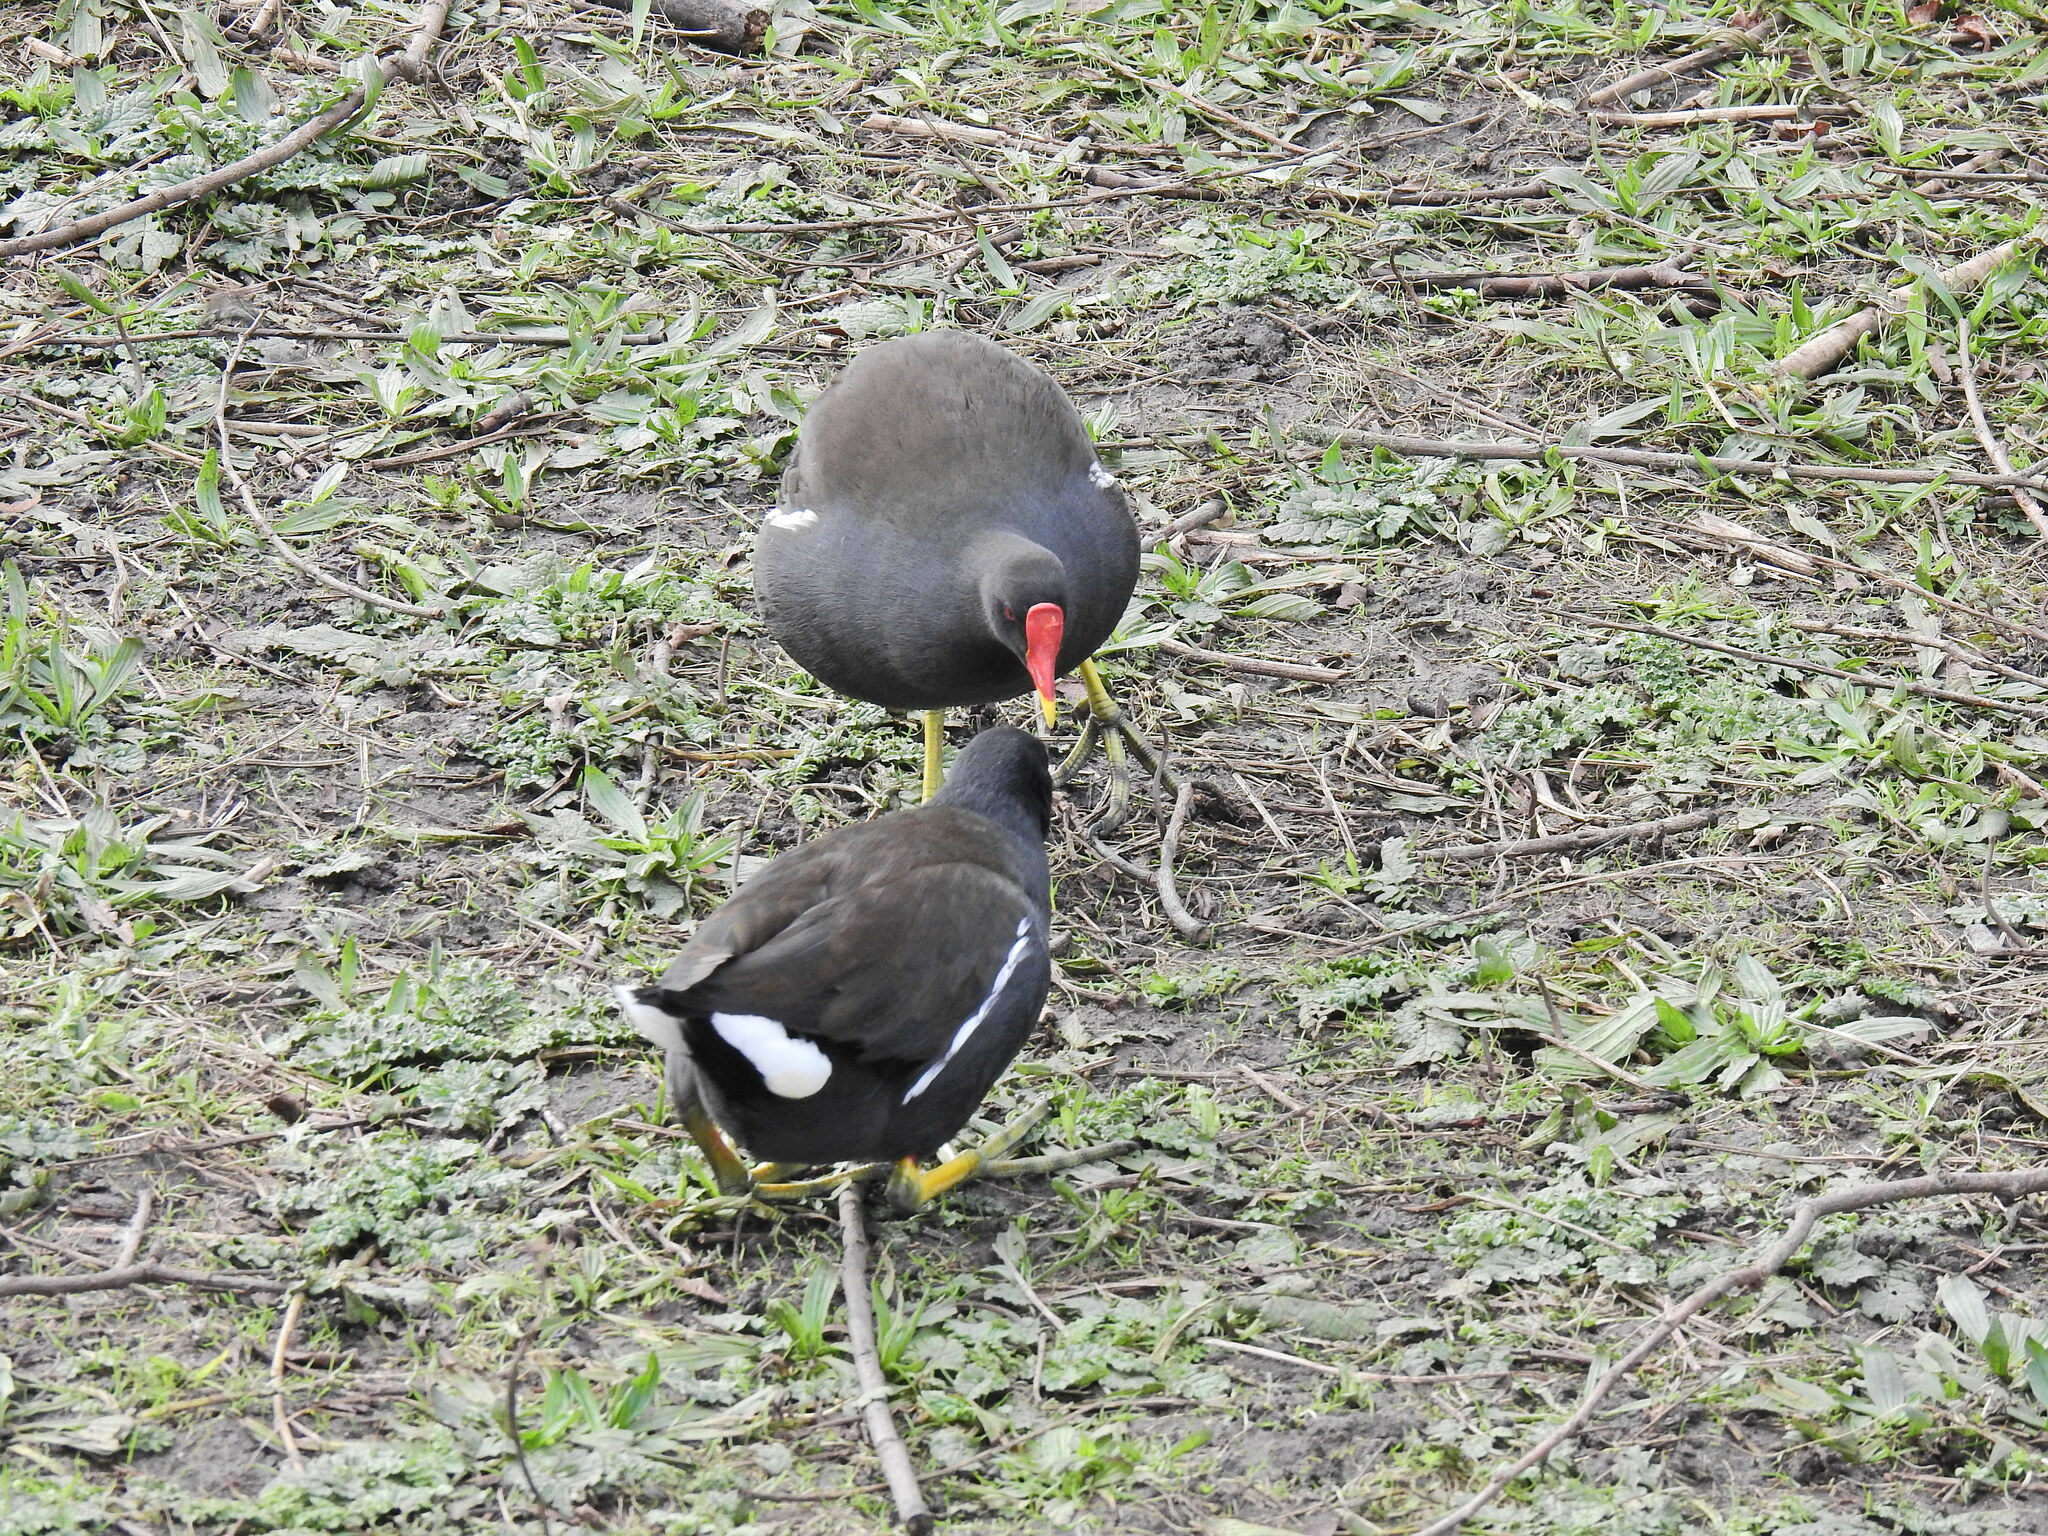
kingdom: Animalia
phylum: Chordata
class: Aves
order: Gruiformes
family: Rallidae
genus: Gallinula
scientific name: Gallinula chloropus
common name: Common moorhen
